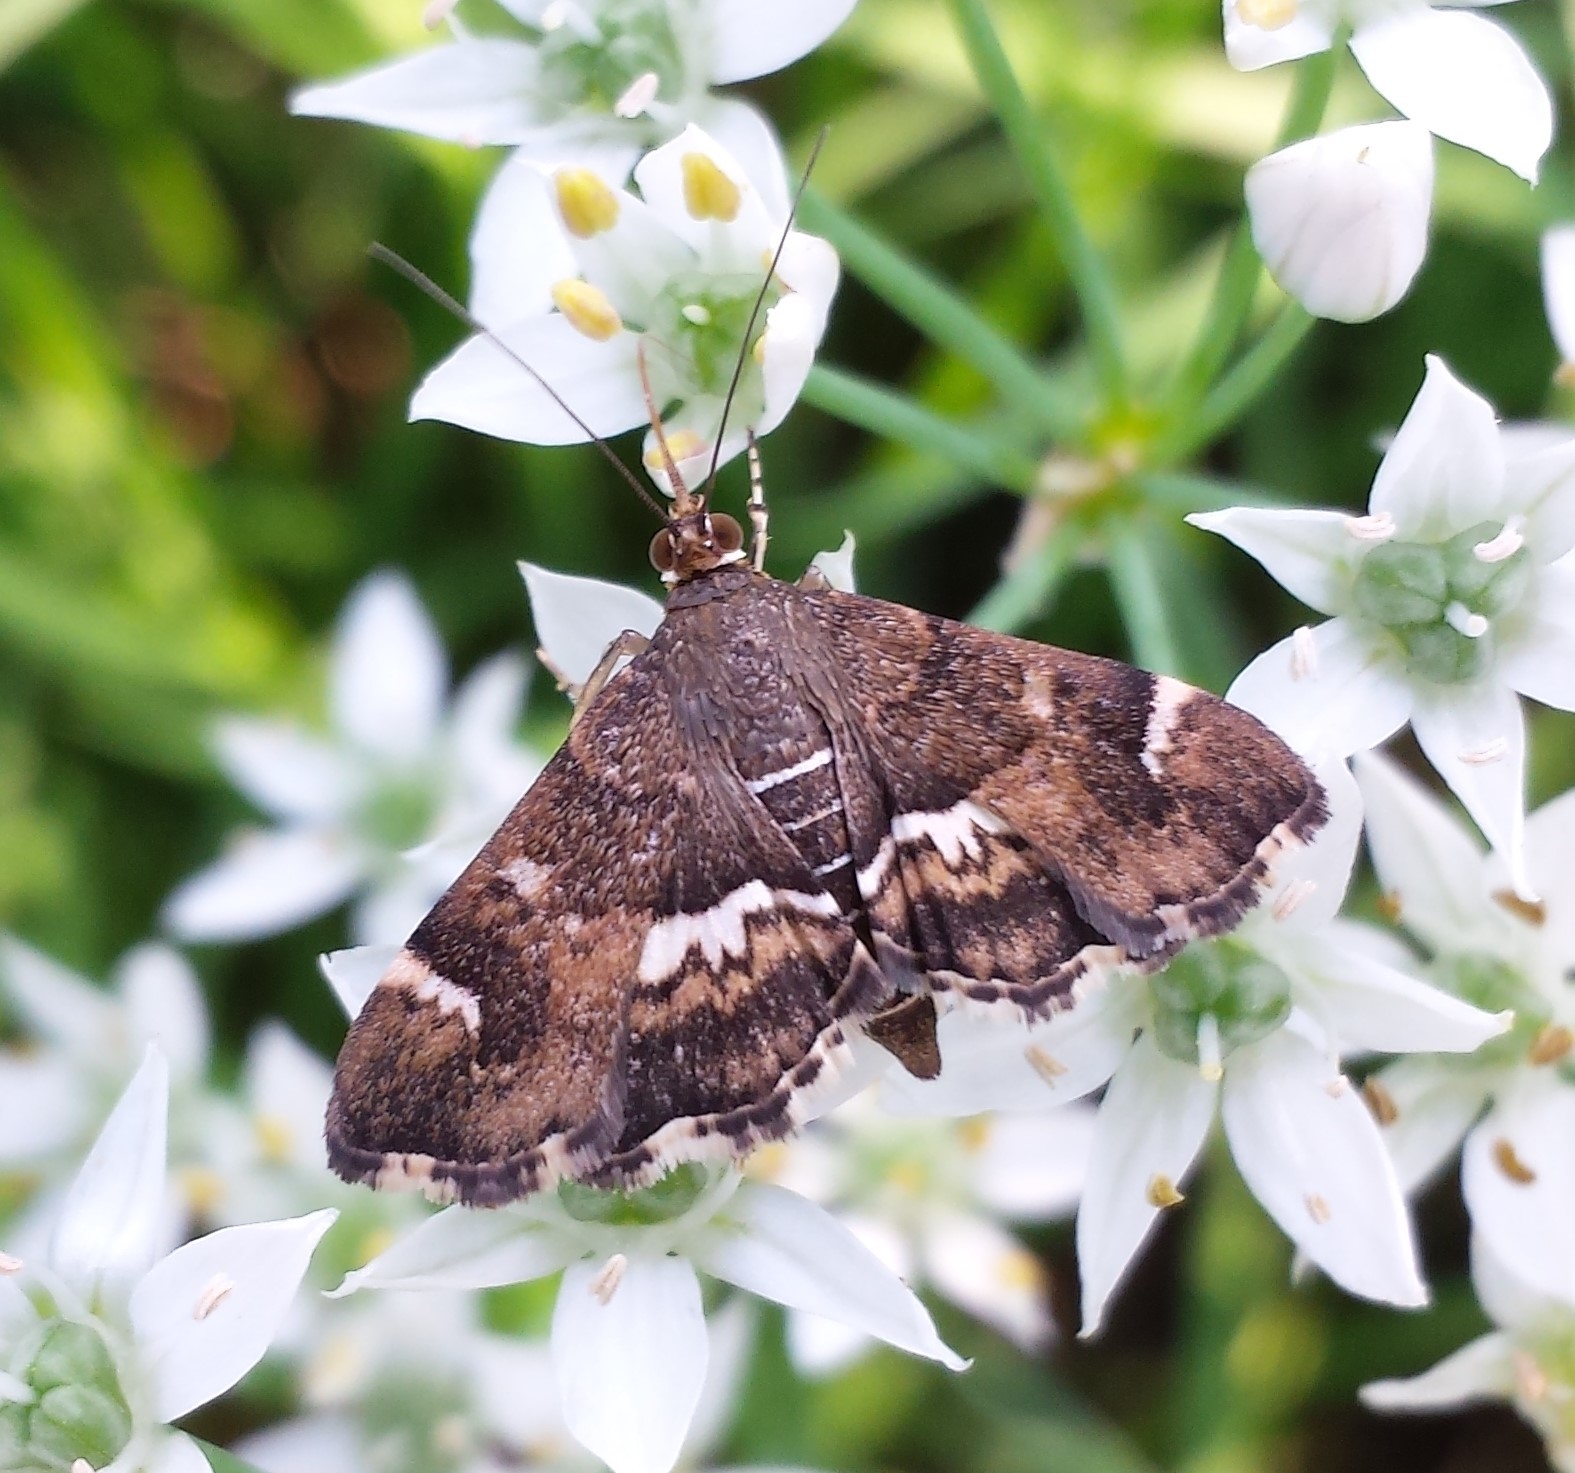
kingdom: Animalia
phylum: Arthropoda
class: Insecta
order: Lepidoptera
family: Crambidae
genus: Hymenia
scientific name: Hymenia perspectalis
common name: Spotted beet webworm
